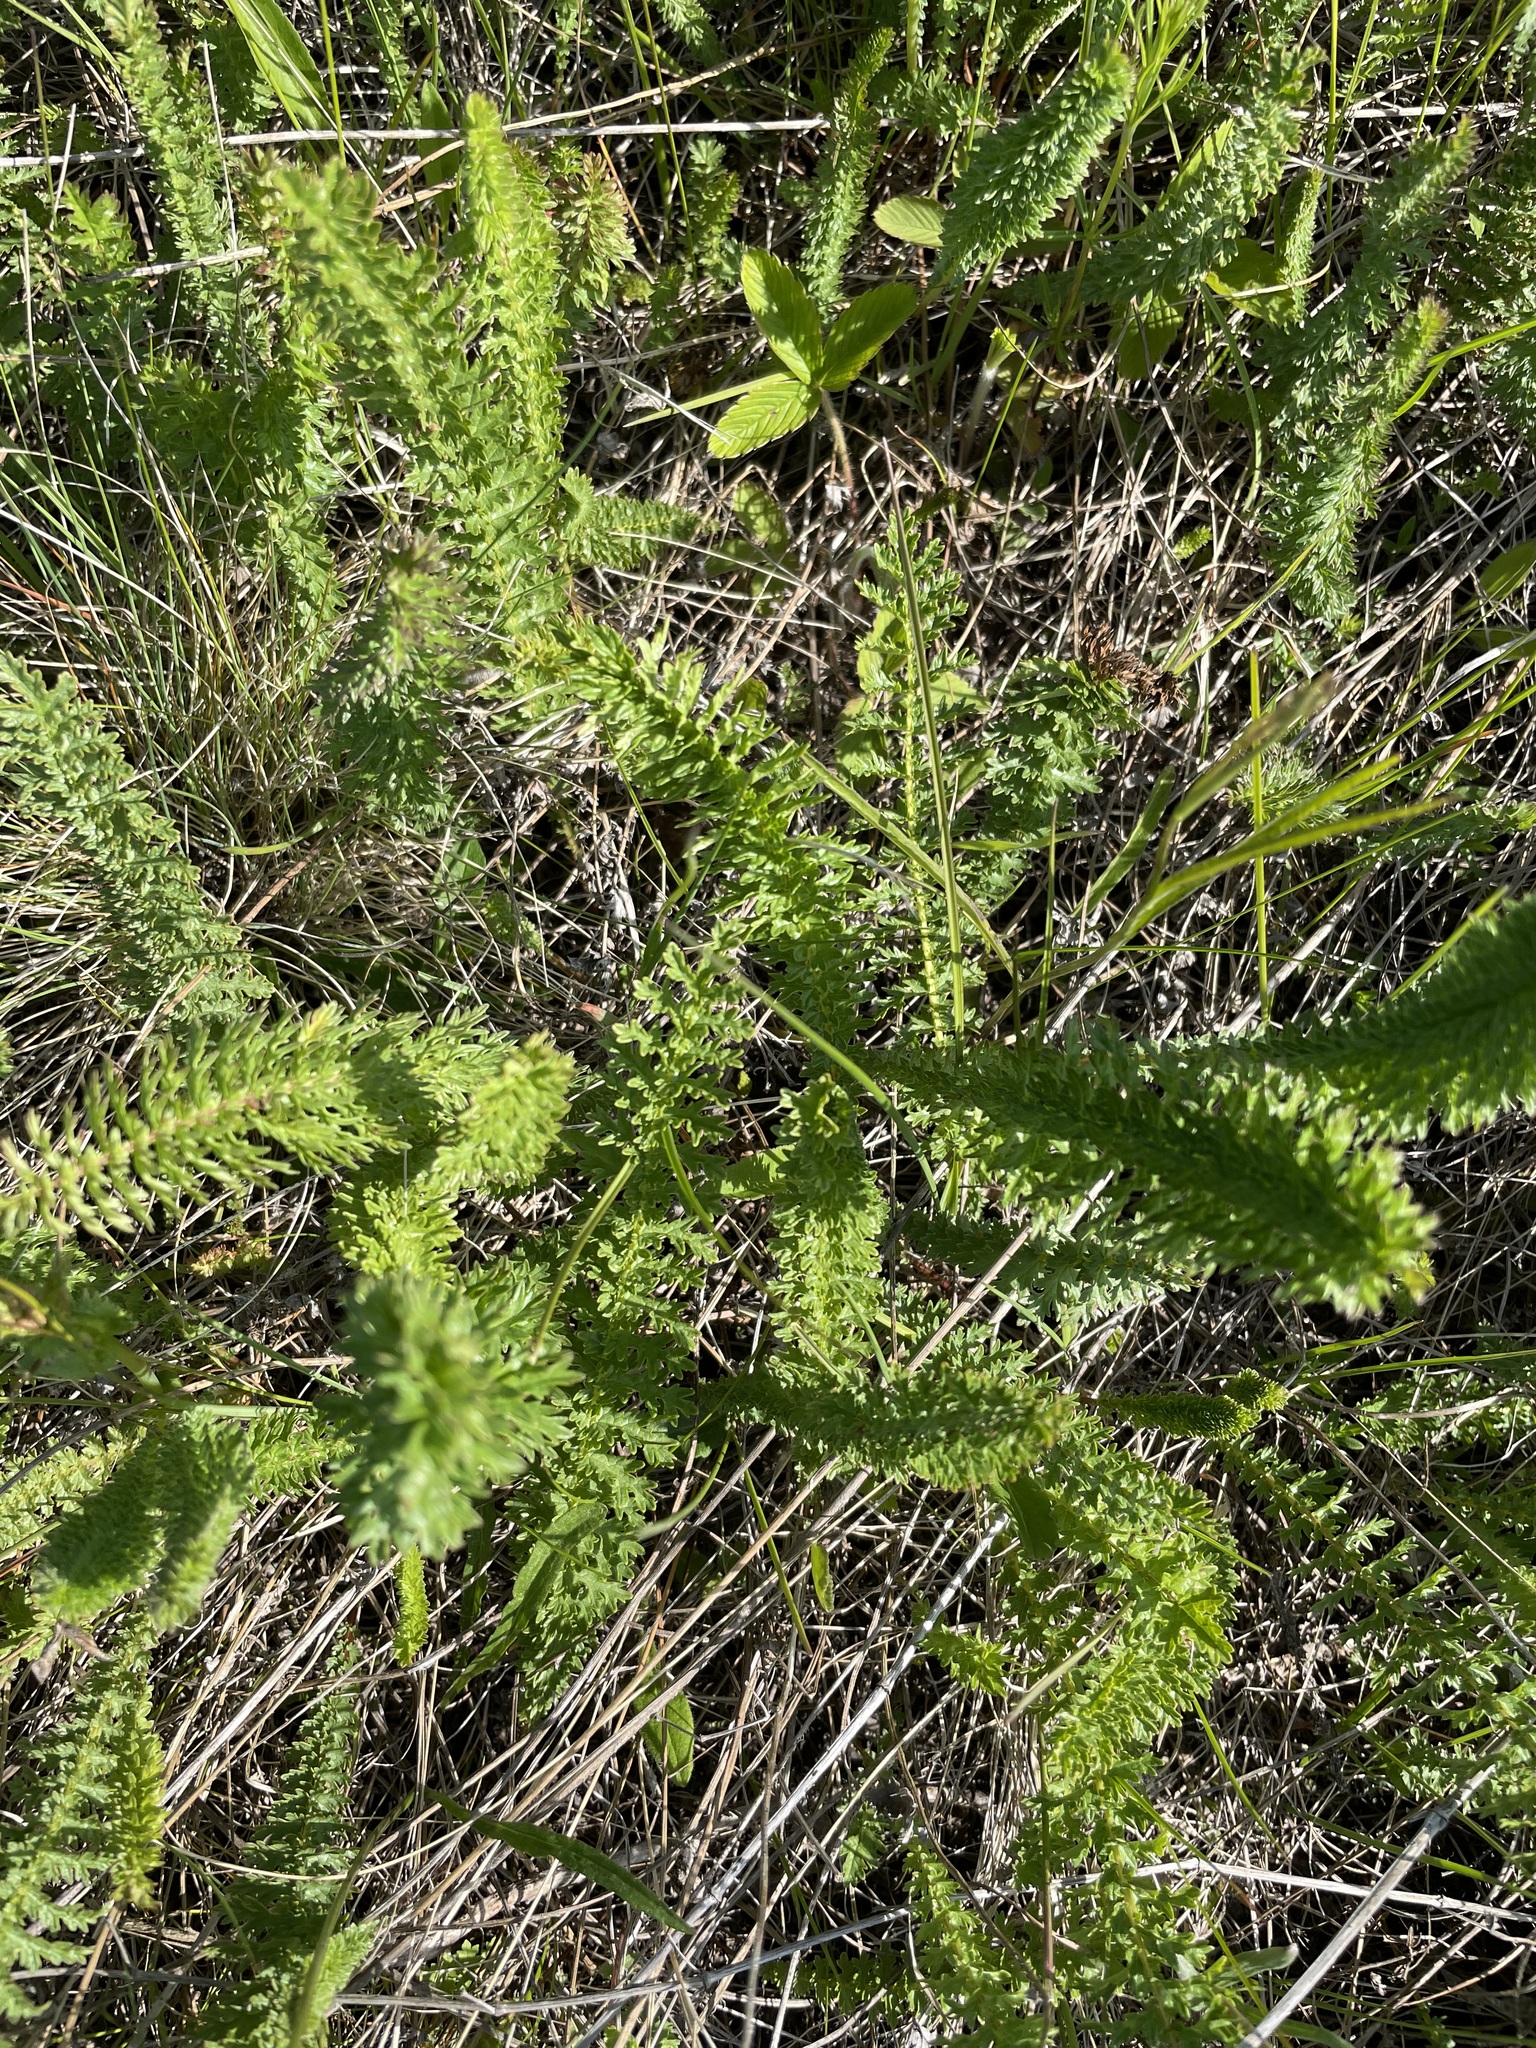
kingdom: Plantae
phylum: Tracheophyta
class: Magnoliopsida
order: Rosales
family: Rosaceae
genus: Filipendula
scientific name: Filipendula vulgaris
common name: Dropwort
